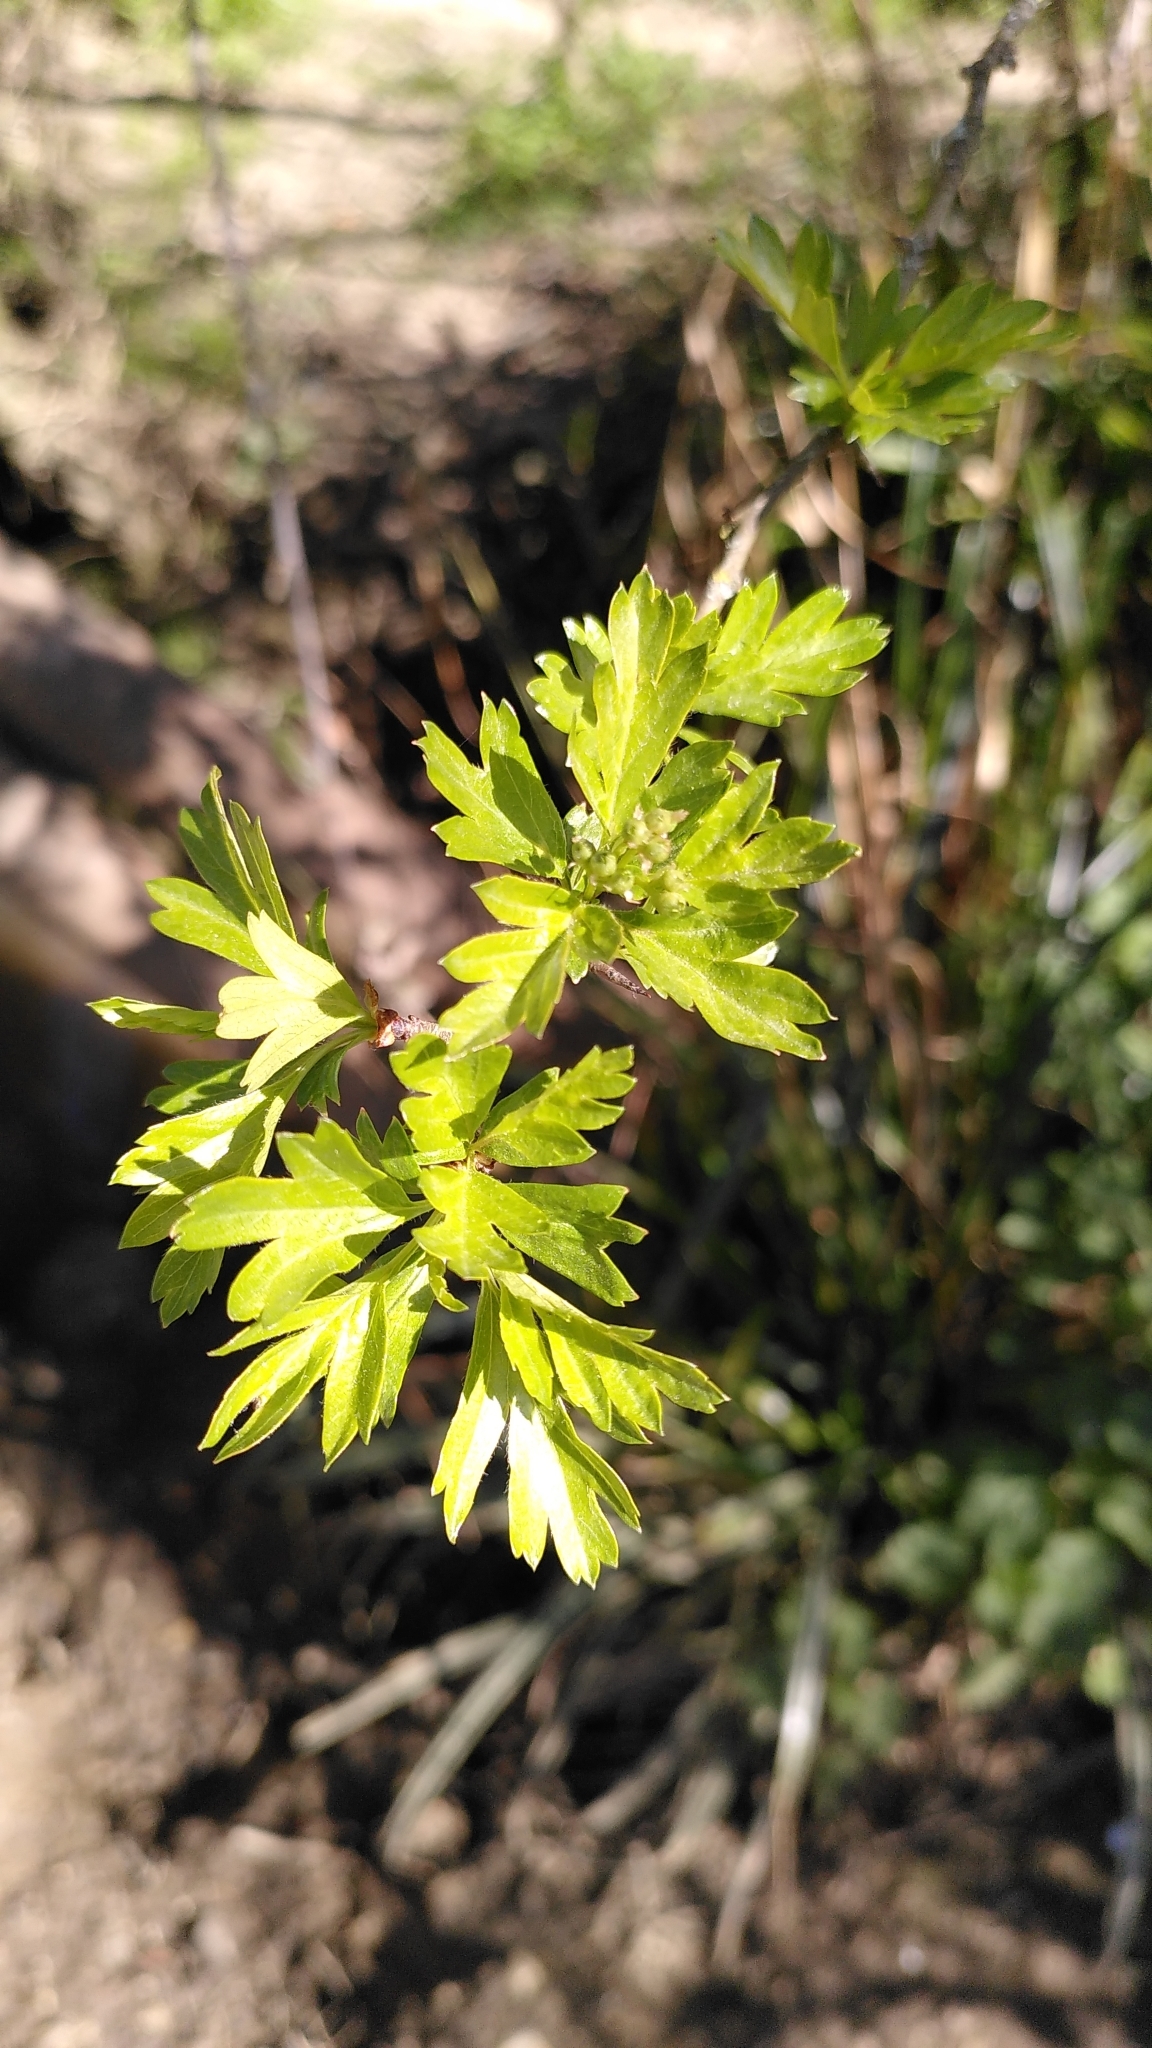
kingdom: Plantae
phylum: Tracheophyta
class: Magnoliopsida
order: Rosales
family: Rosaceae
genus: Crataegus
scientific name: Crataegus monogyna
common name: Hawthorn
